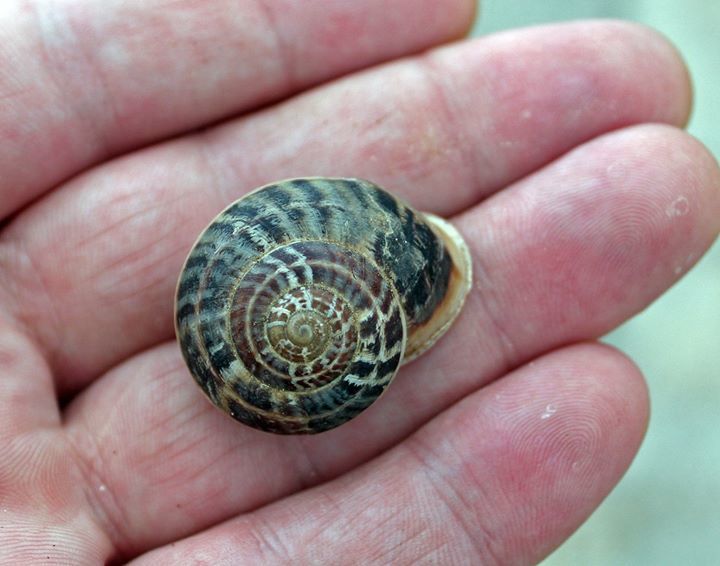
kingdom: Animalia
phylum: Mollusca
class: Gastropoda
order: Stylommatophora
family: Helicidae
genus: Eobania
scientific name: Eobania vermiculata
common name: Chocolateband snail
